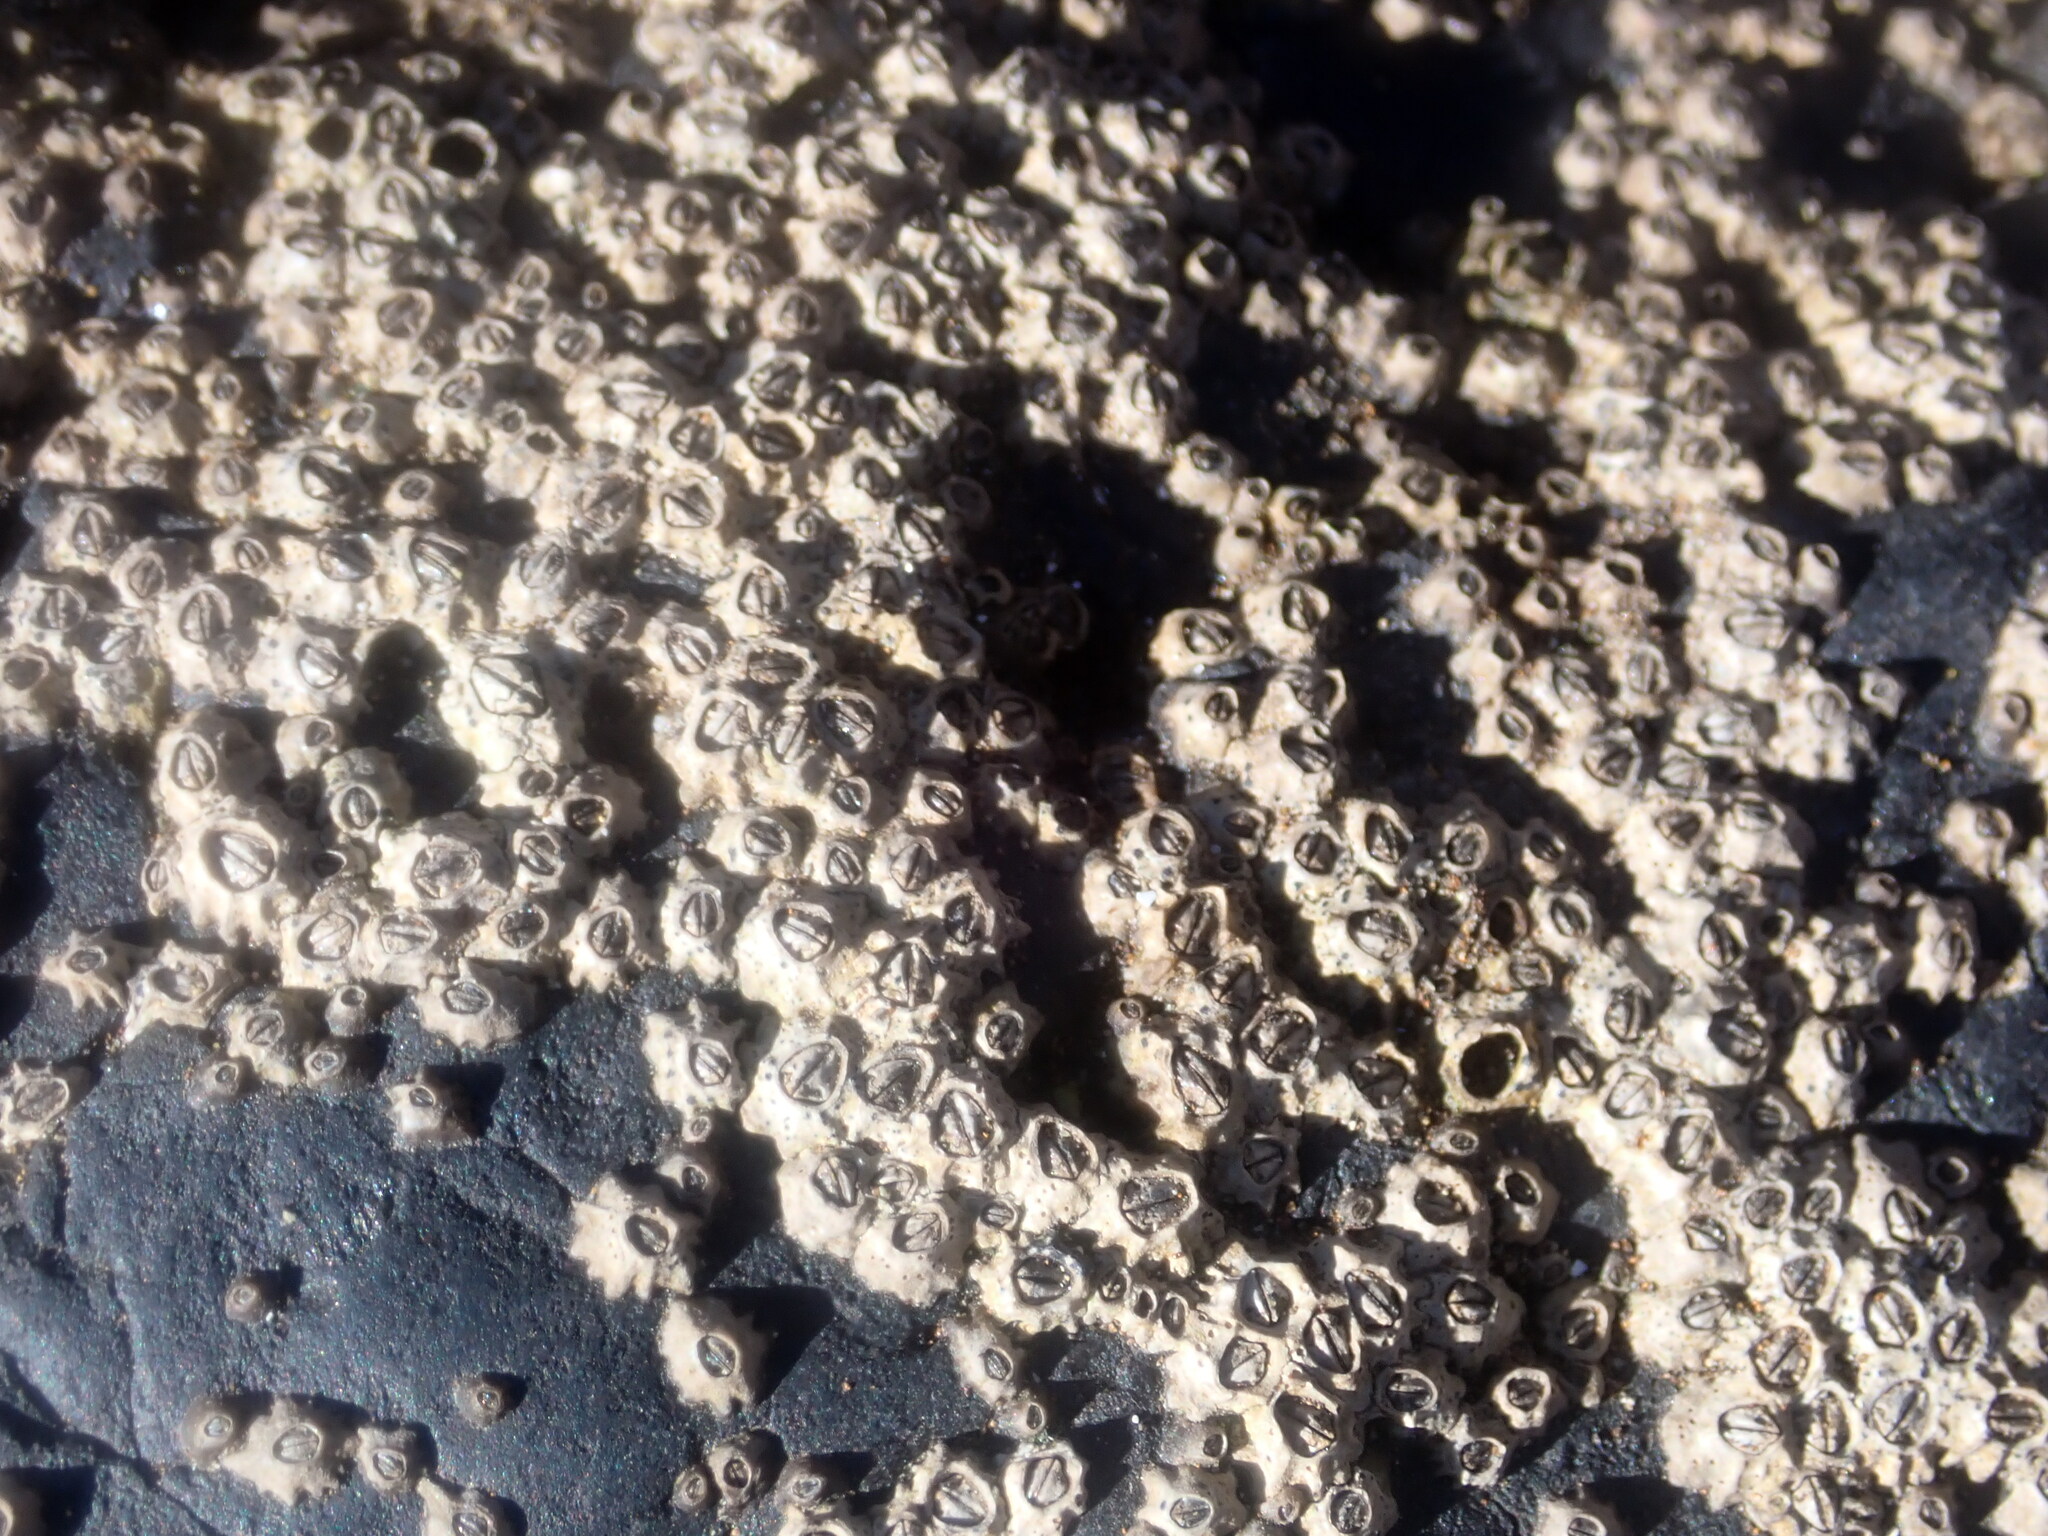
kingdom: Animalia
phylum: Arthropoda
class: Maxillopoda
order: Sessilia
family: Chthamalidae
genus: Chamaesipho
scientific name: Chamaesipho columna
